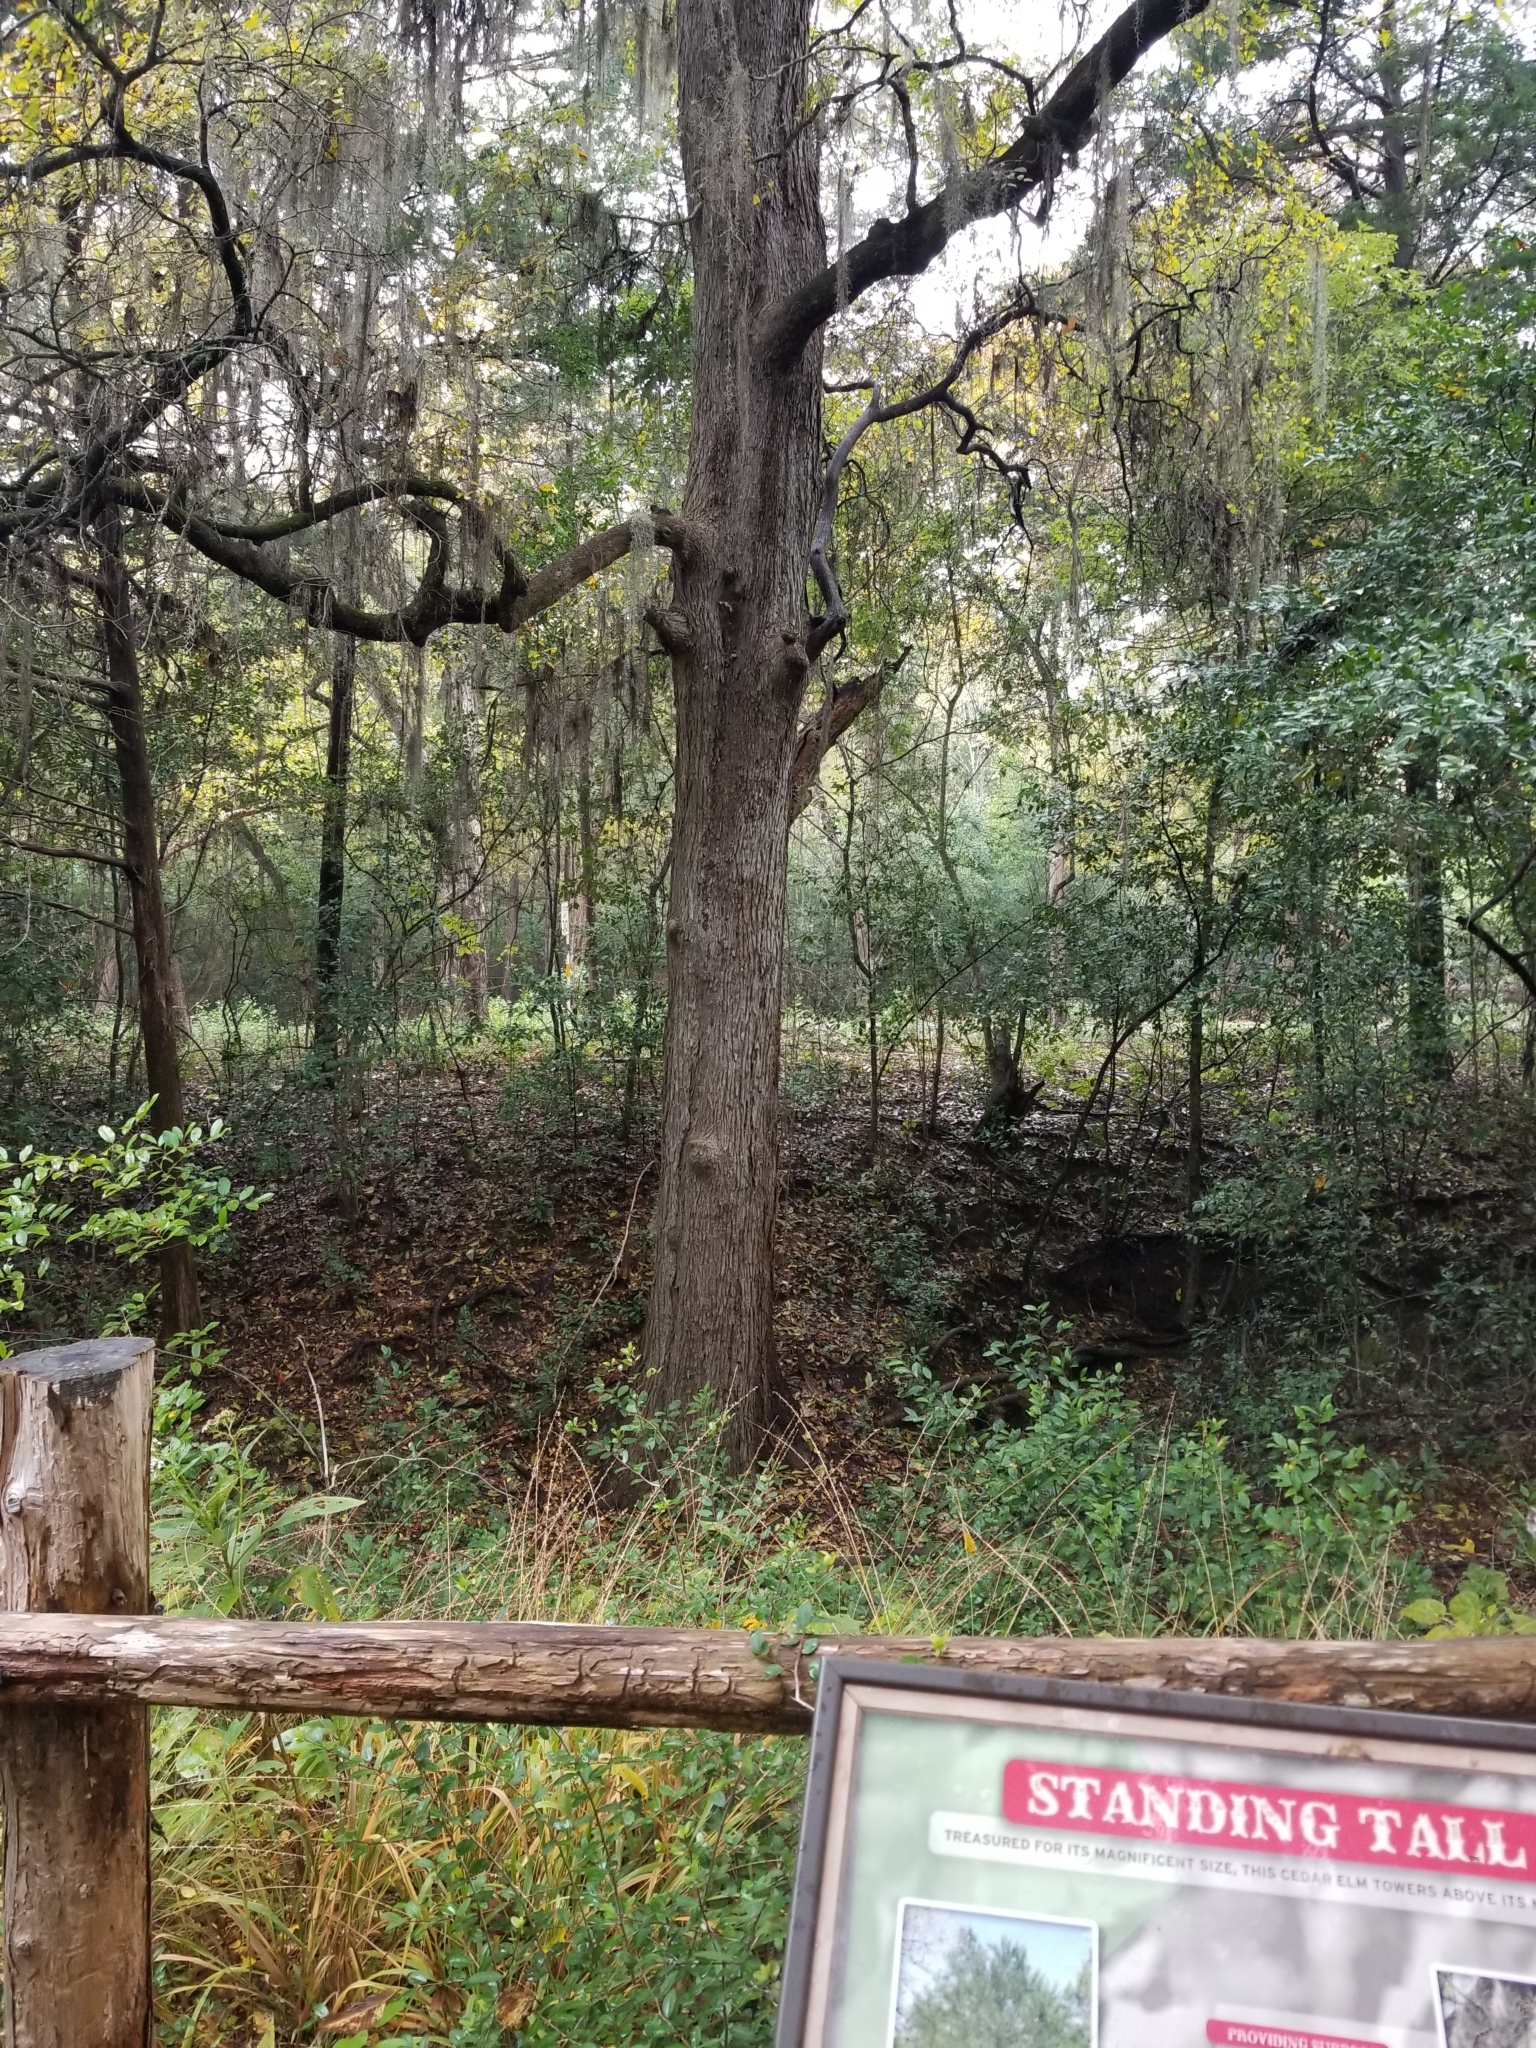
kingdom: Plantae
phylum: Tracheophyta
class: Magnoliopsida
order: Rosales
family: Ulmaceae
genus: Ulmus
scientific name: Ulmus crassifolia
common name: Basket elm
